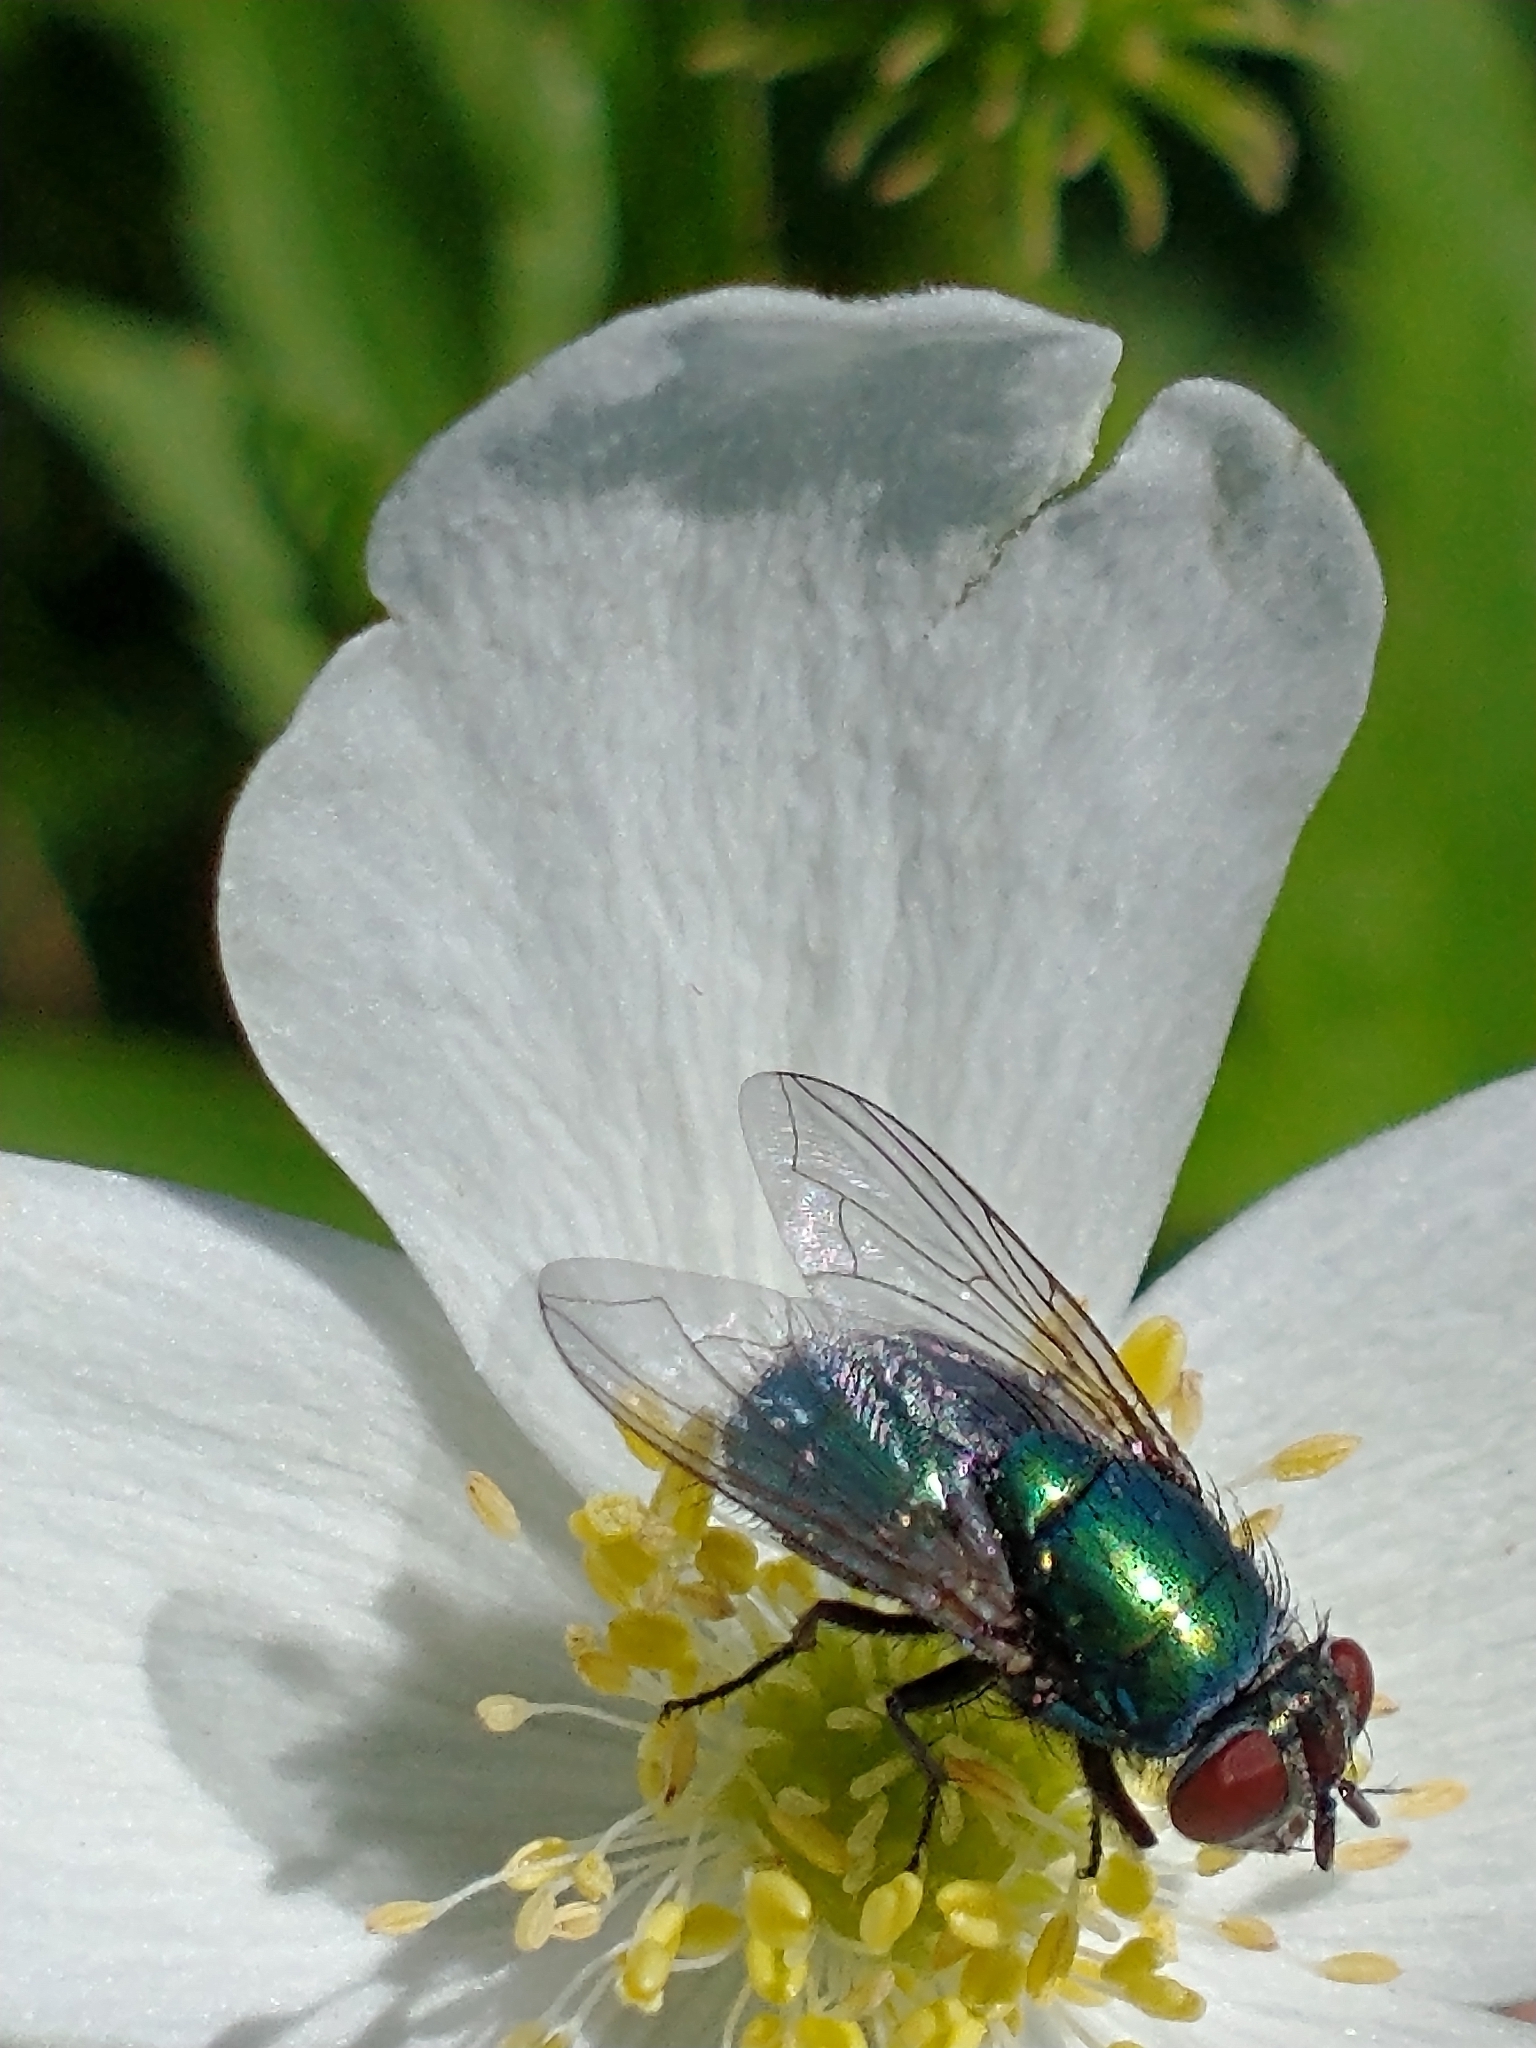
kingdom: Animalia
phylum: Arthropoda
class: Insecta
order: Diptera
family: Calliphoridae
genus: Lucilia
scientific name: Lucilia sericata
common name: Blow fly
